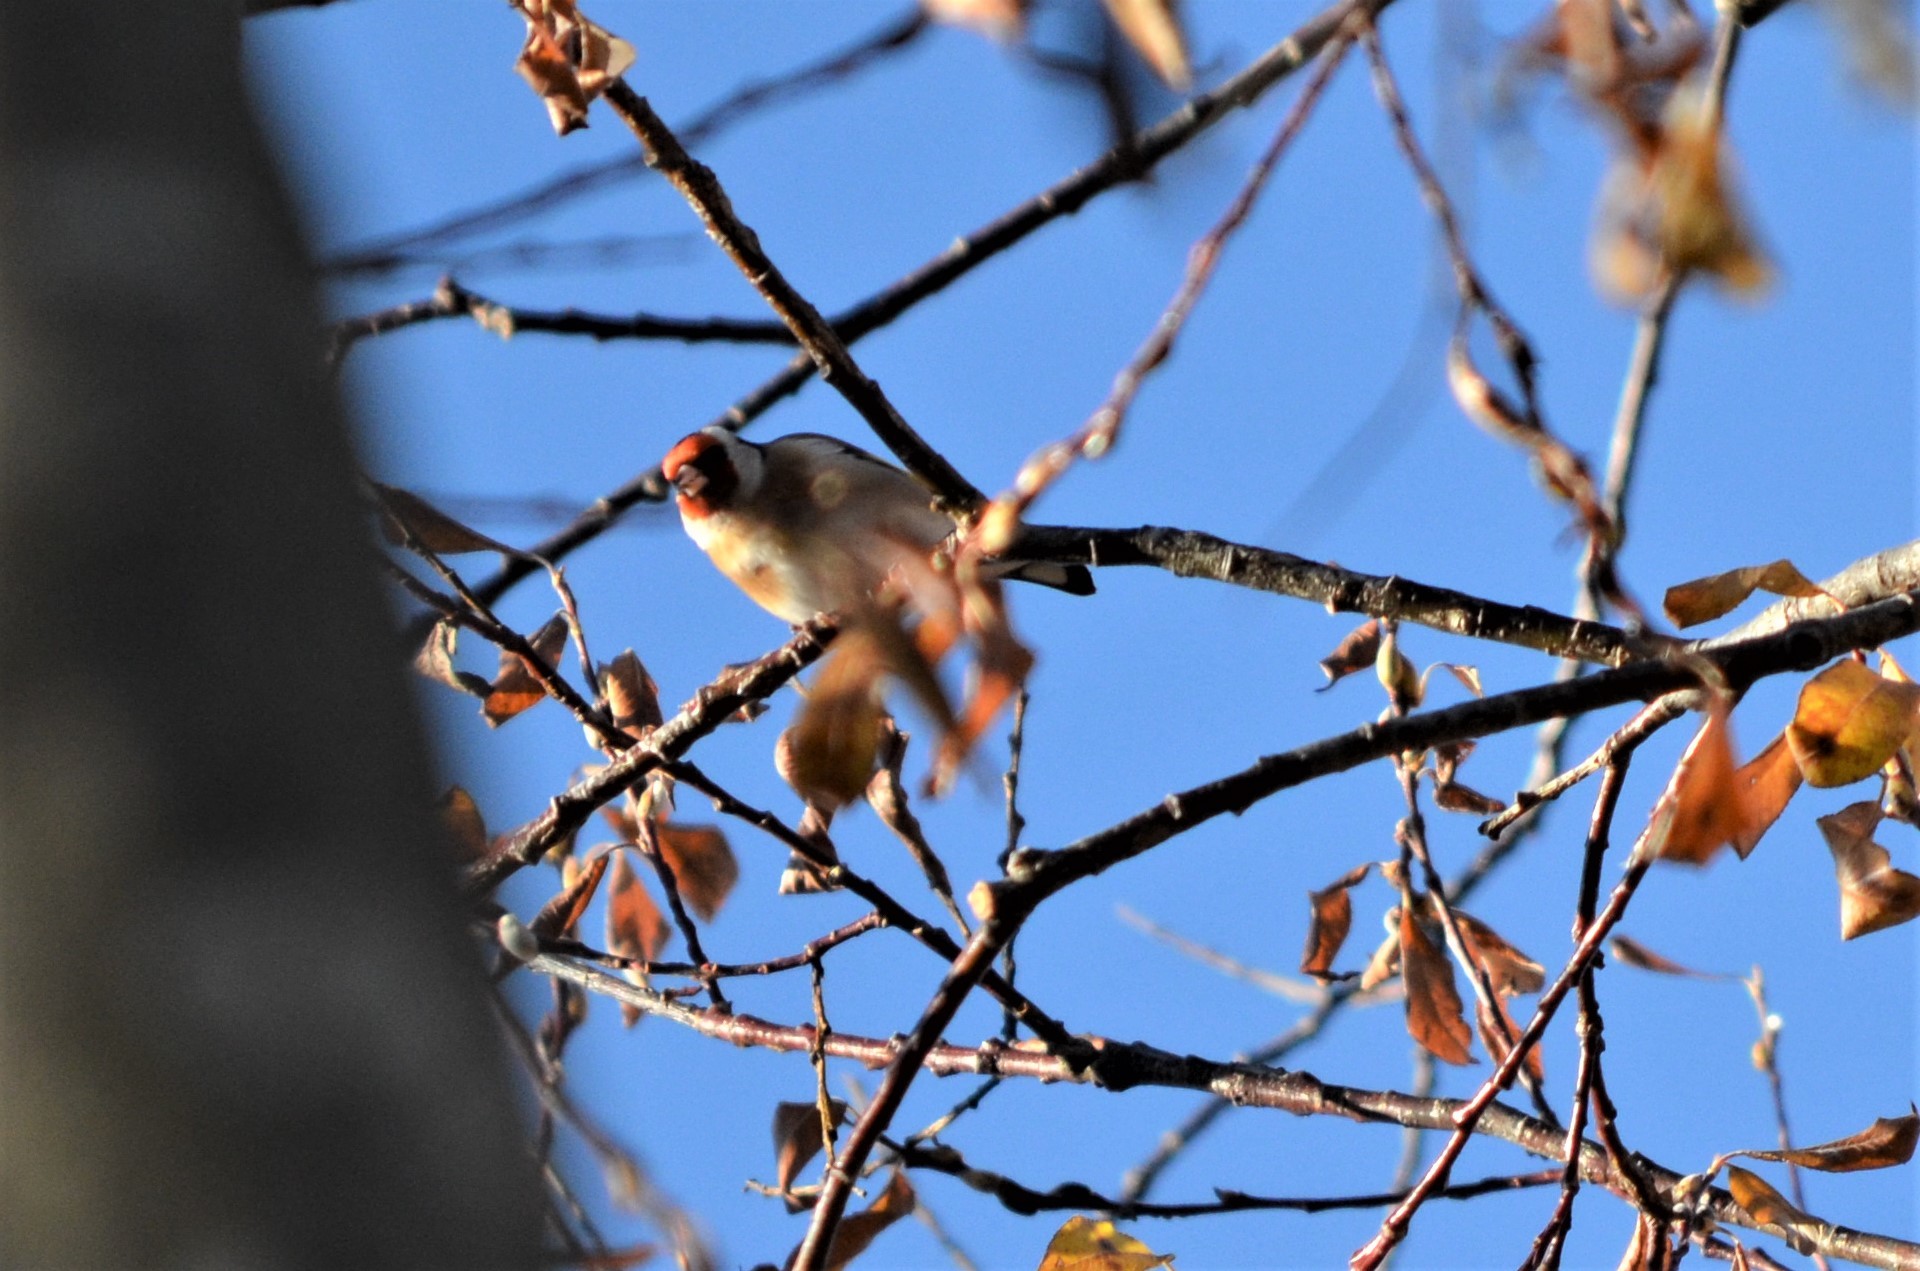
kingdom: Animalia
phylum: Chordata
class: Aves
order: Passeriformes
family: Fringillidae
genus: Carduelis
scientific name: Carduelis carduelis
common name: European goldfinch
